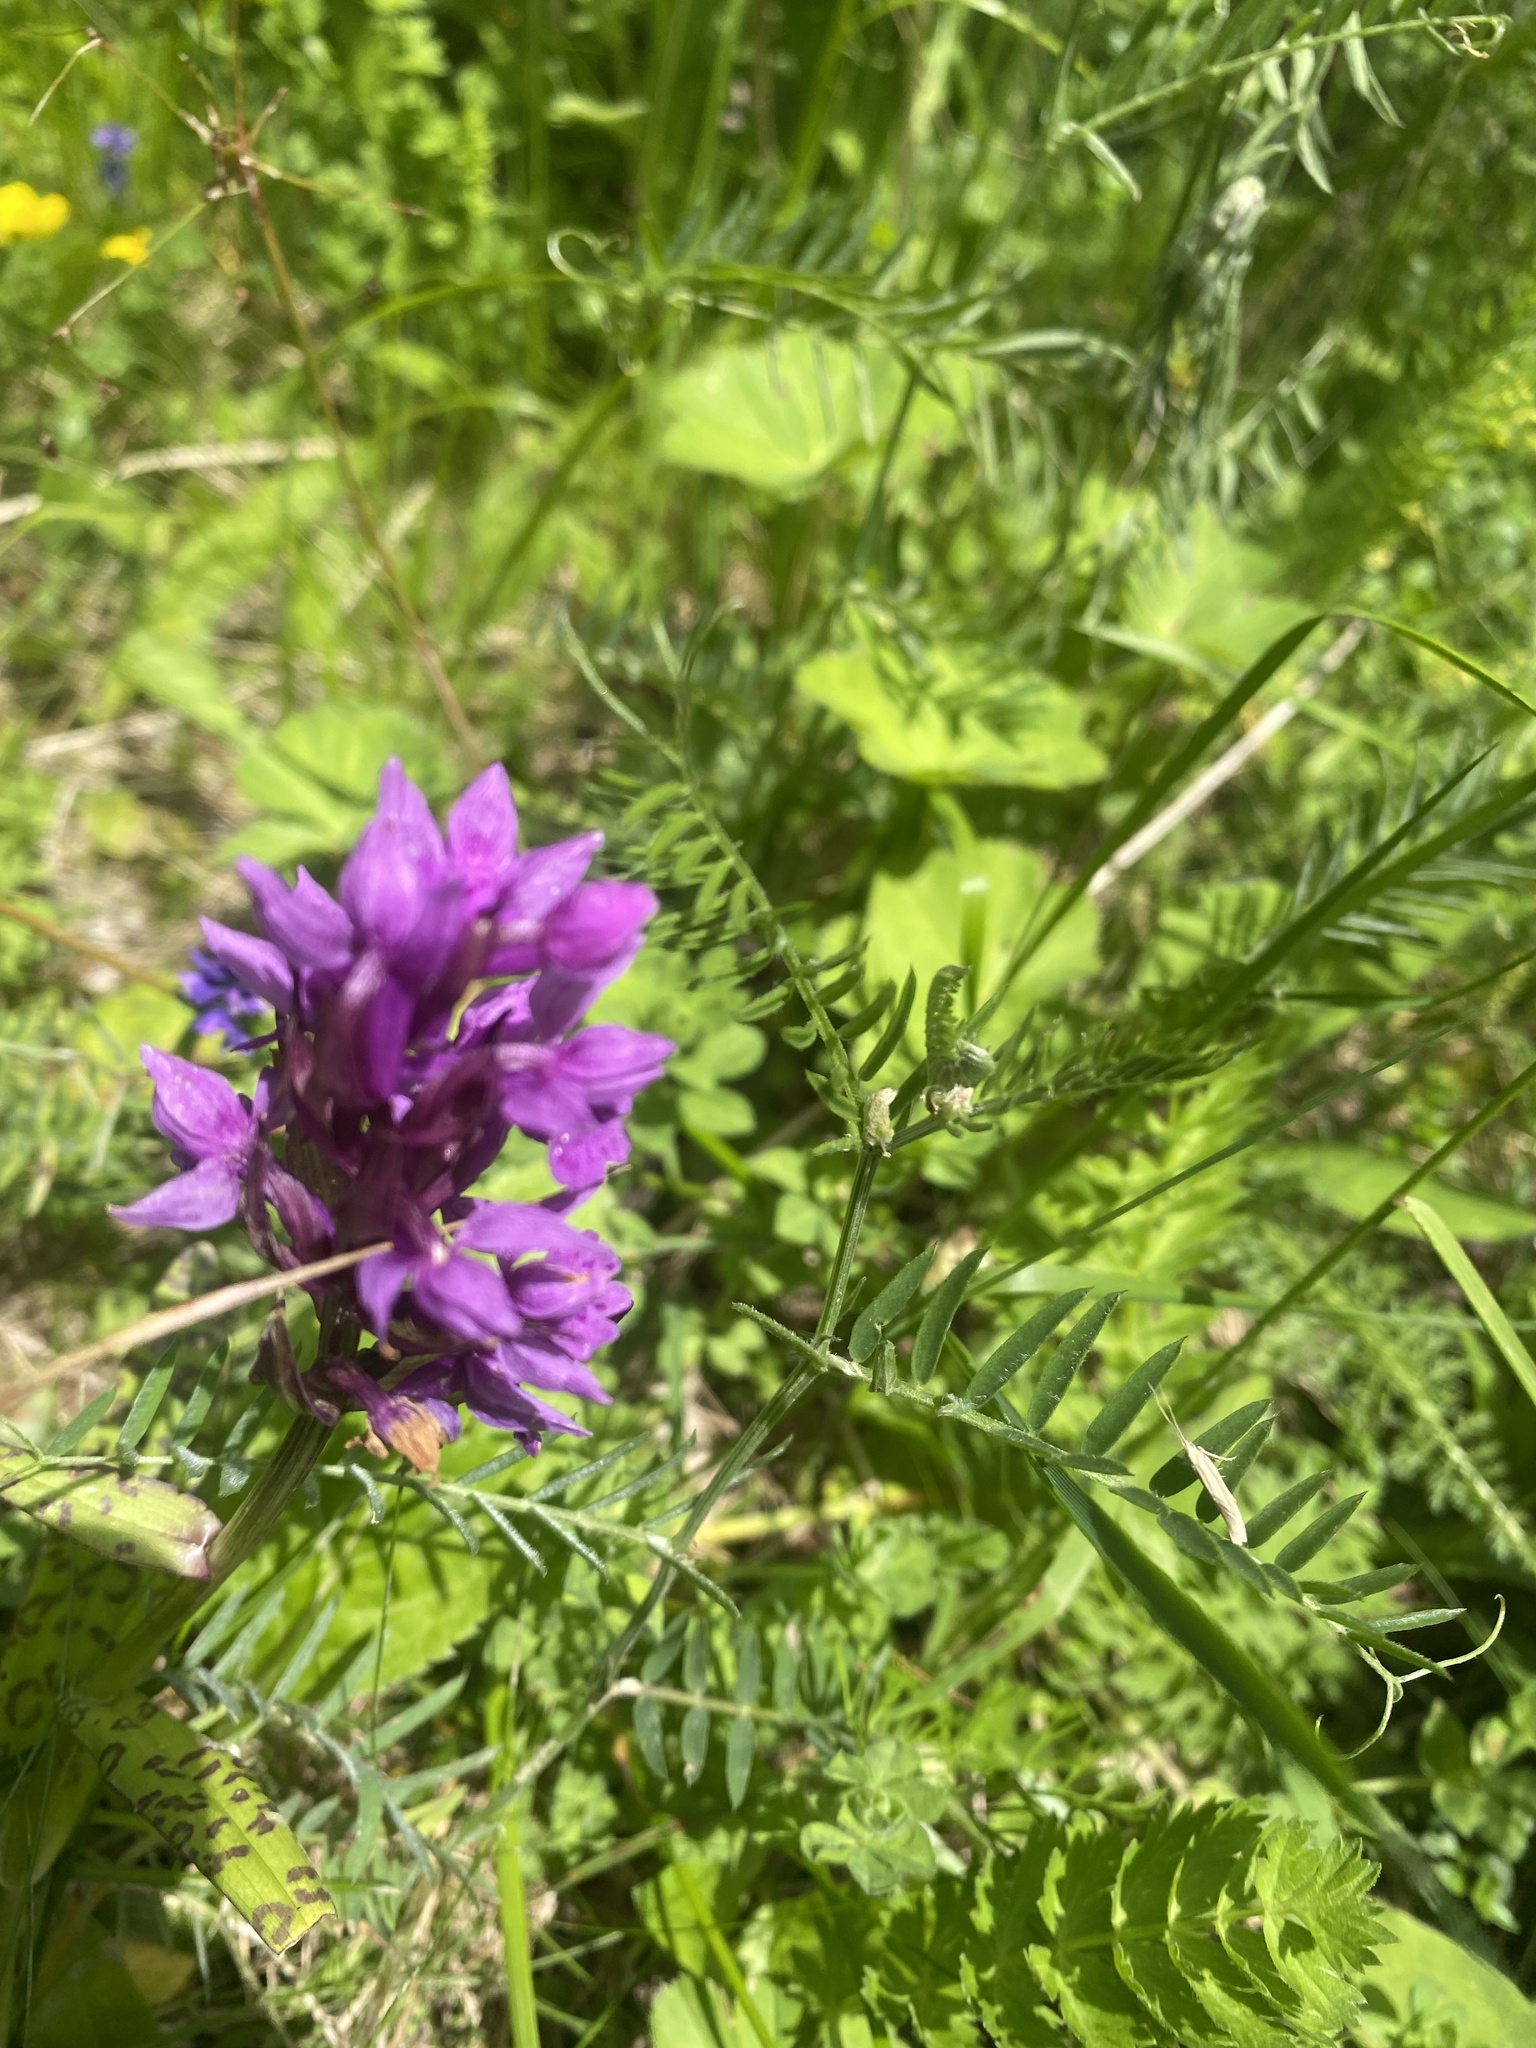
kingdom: Plantae
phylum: Tracheophyta
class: Liliopsida
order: Asparagales
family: Orchidaceae
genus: Dactylorhiza
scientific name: Dactylorhiza euxina
